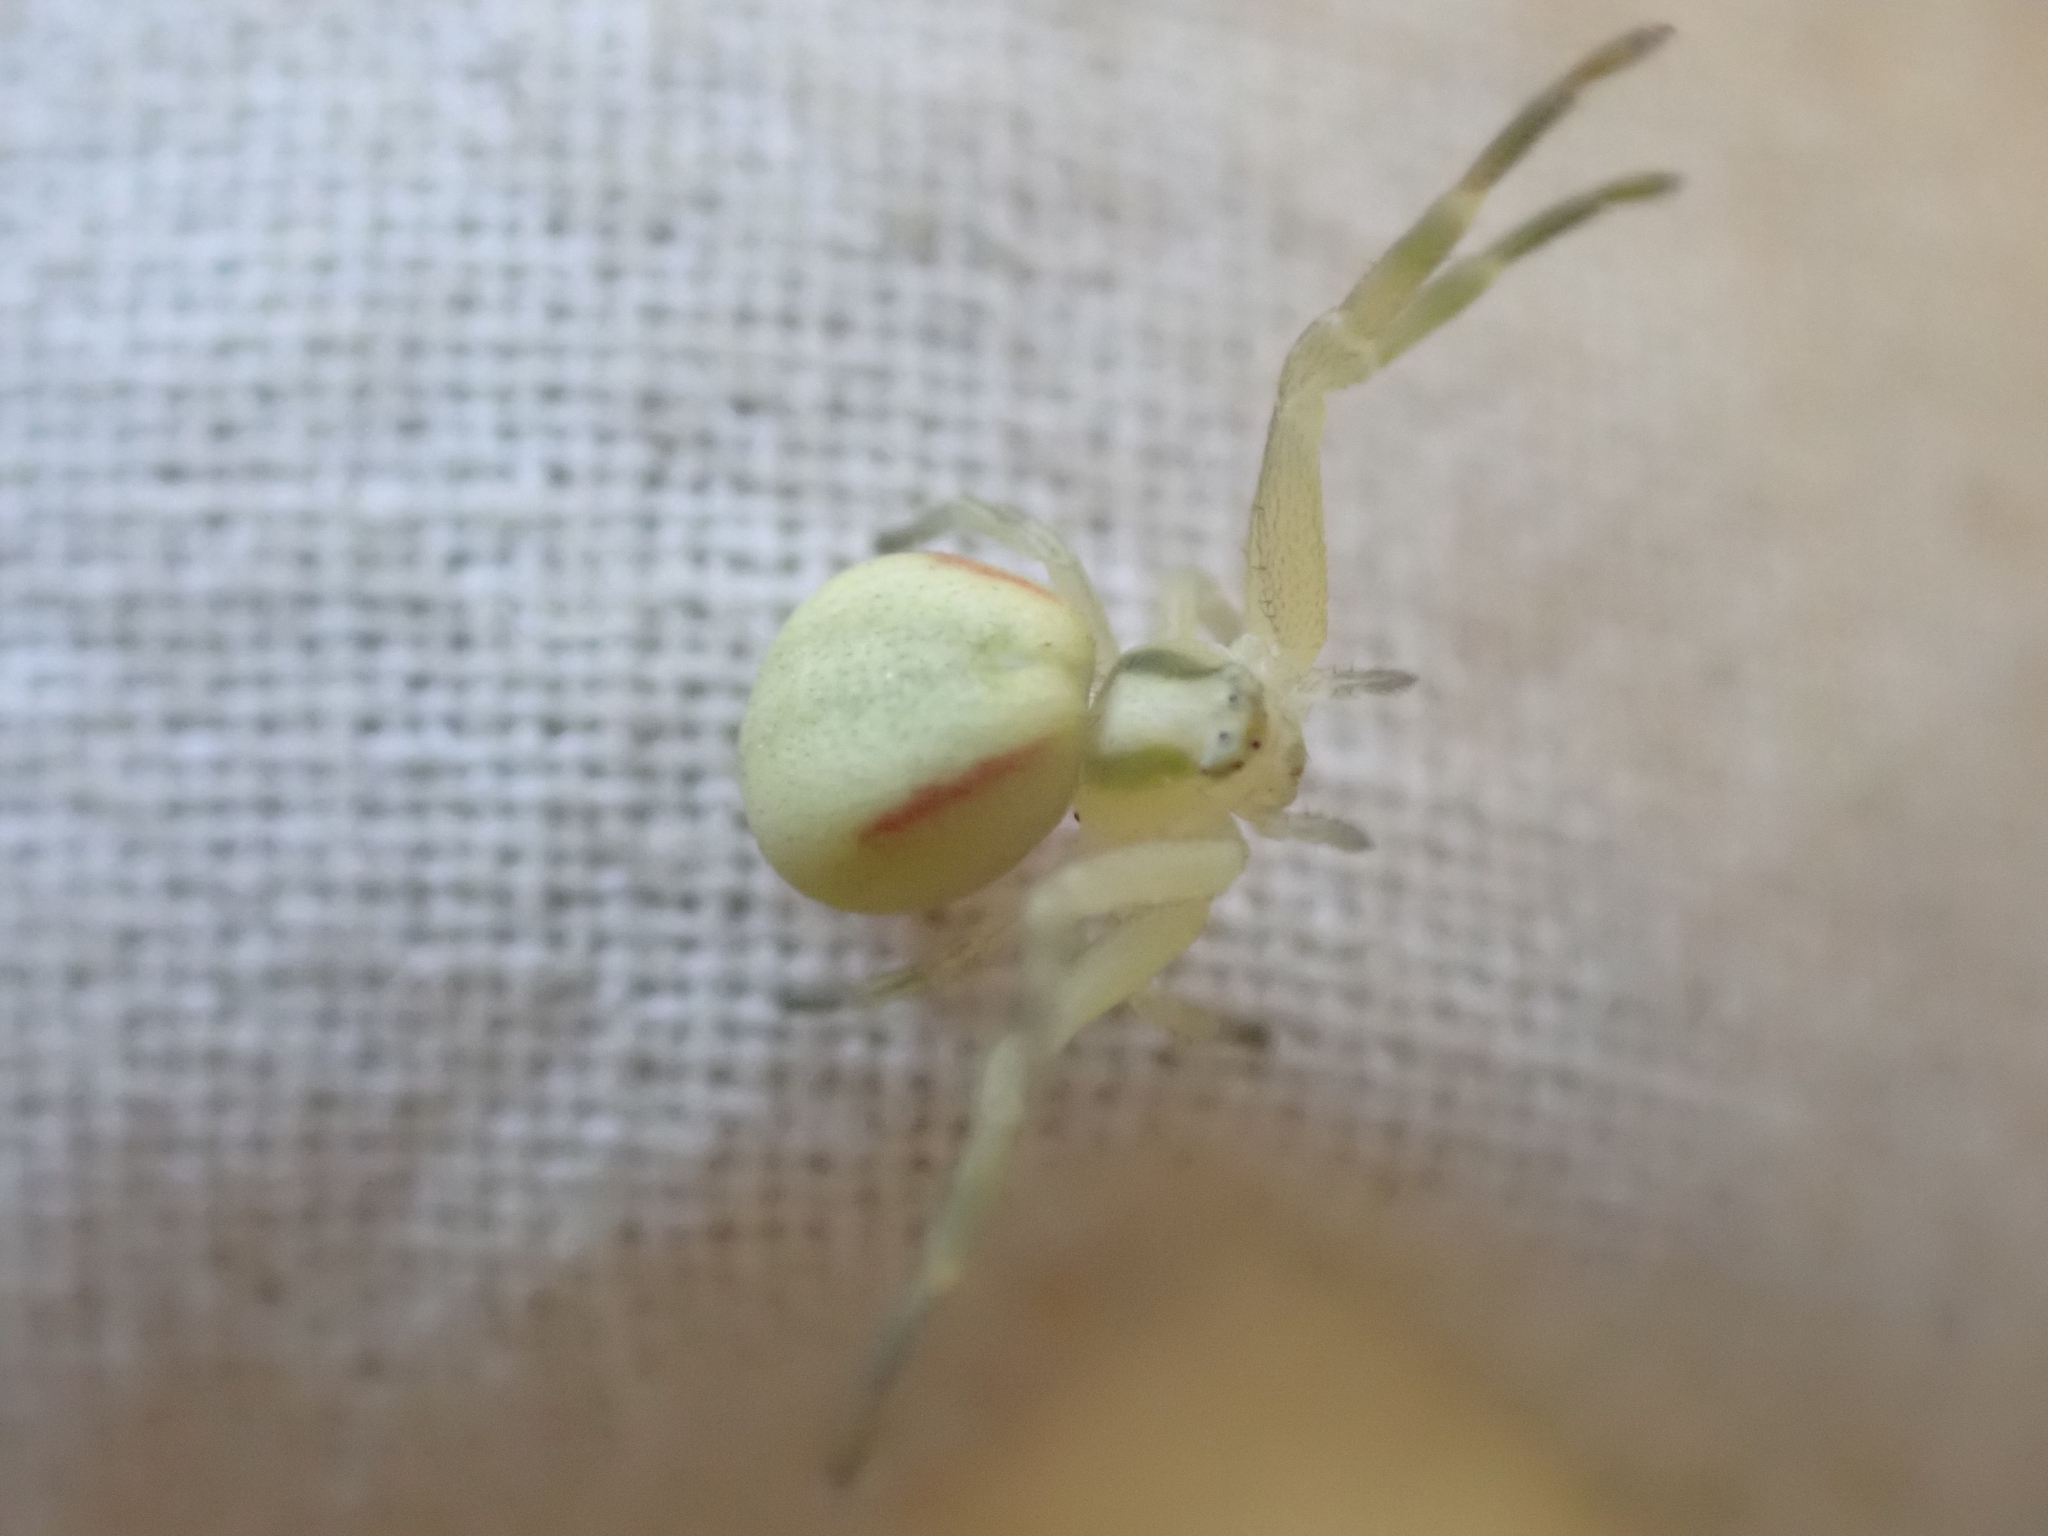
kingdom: Animalia
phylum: Arthropoda
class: Arachnida
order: Araneae
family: Thomisidae
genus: Misumena
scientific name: Misumena vatia
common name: Goldenrod crab spider
